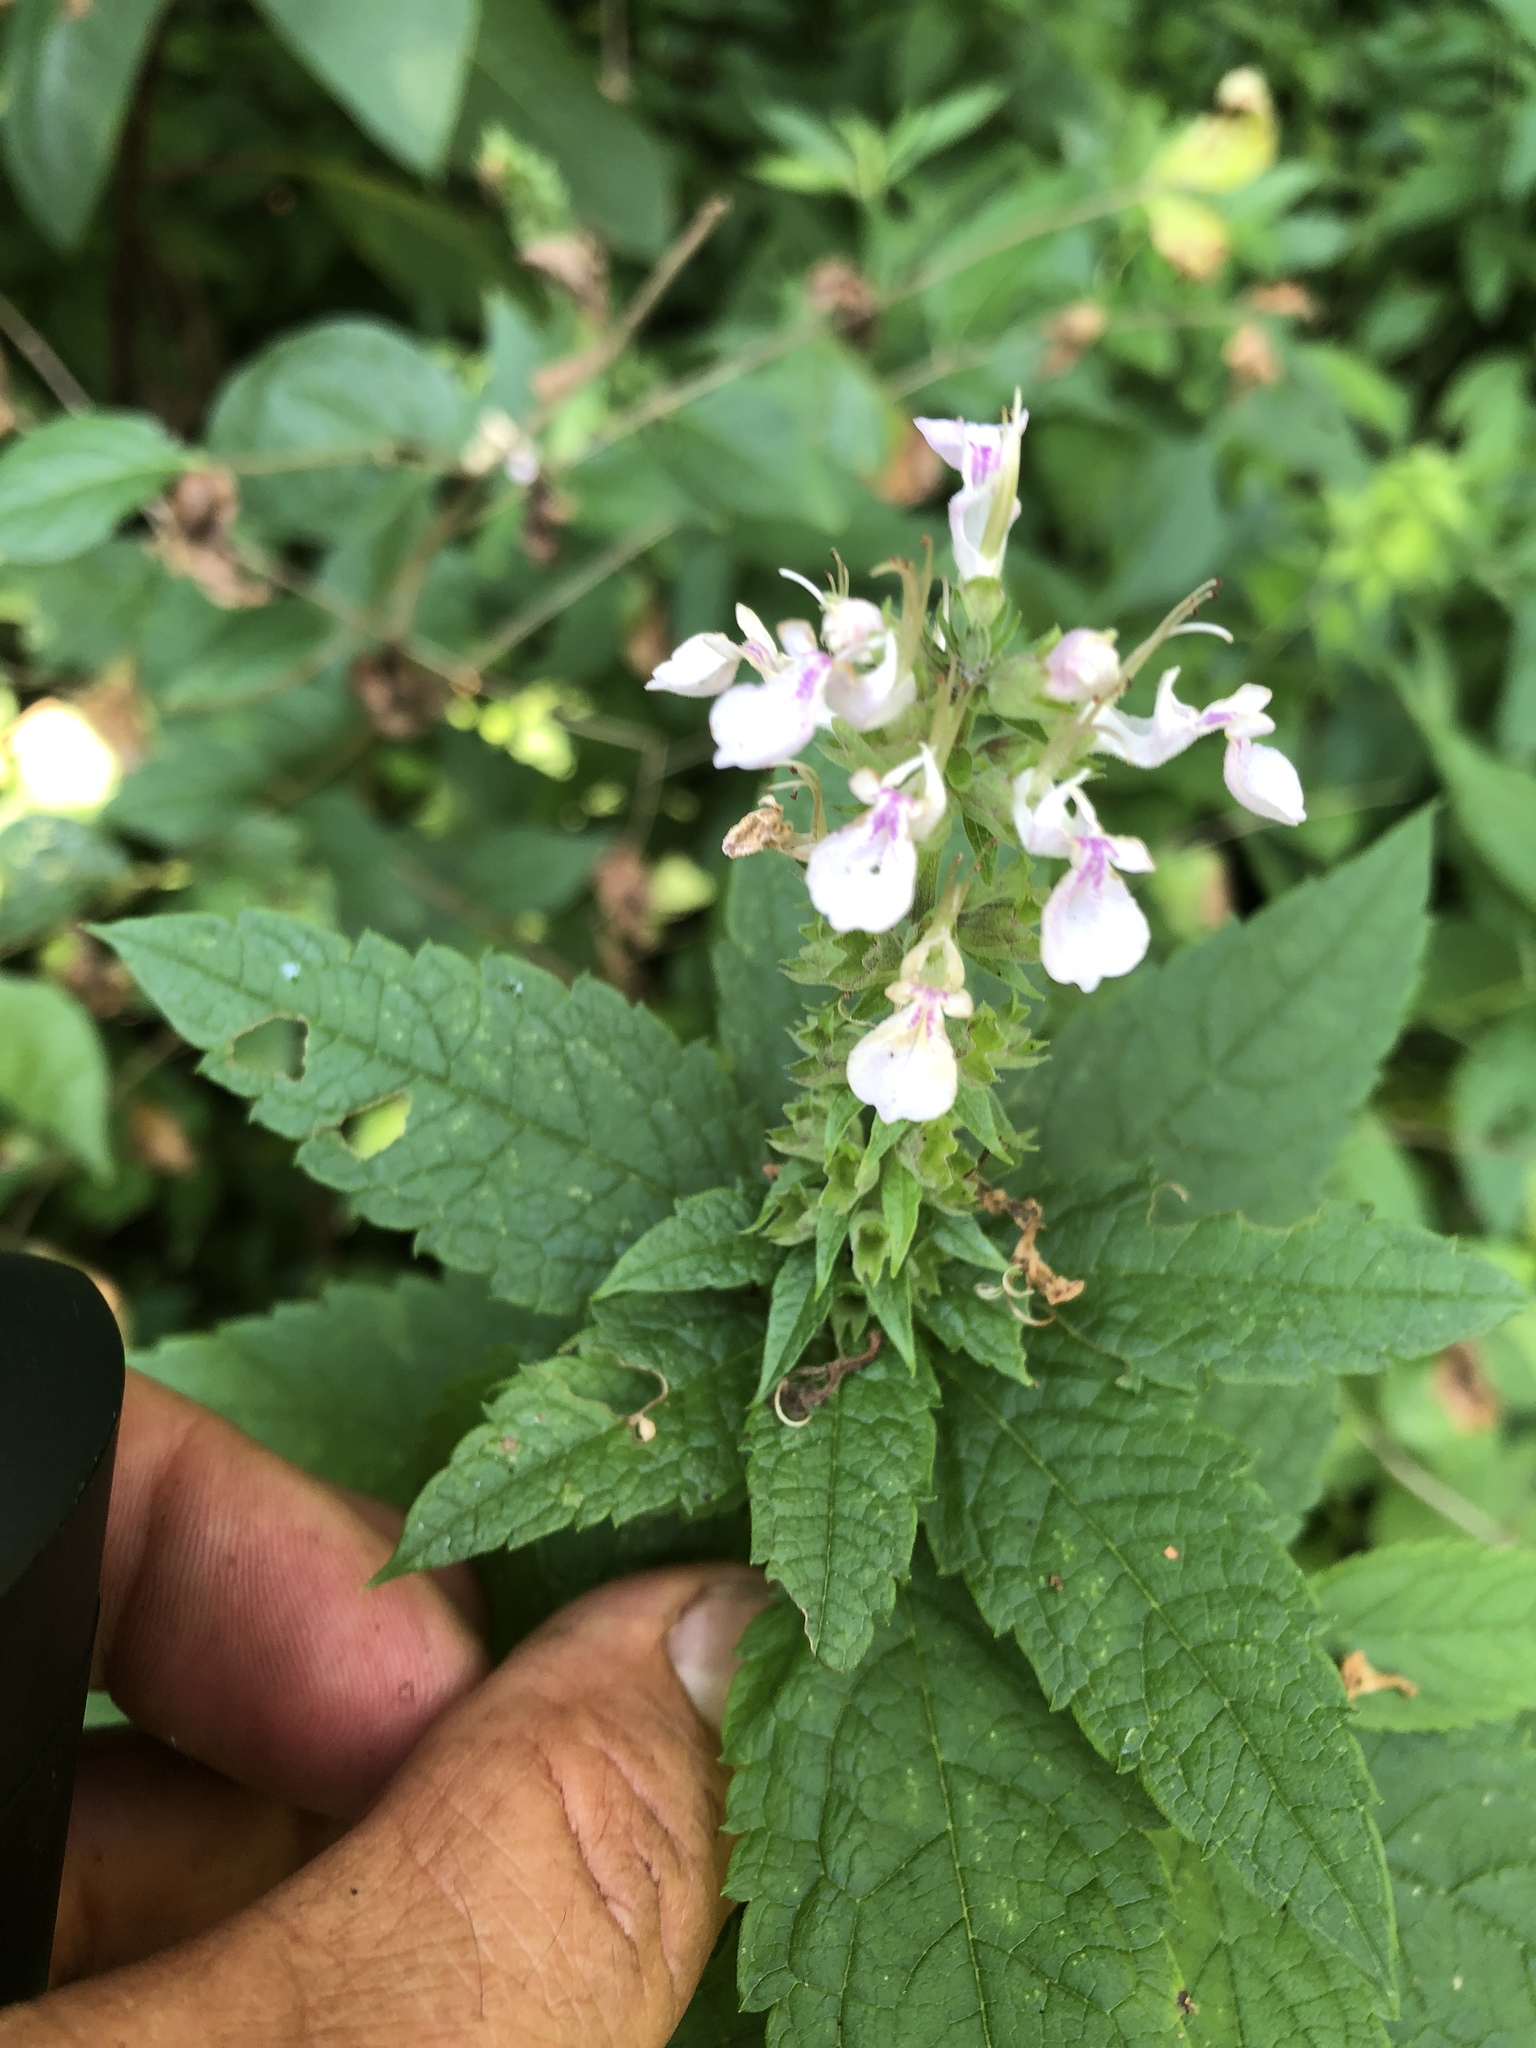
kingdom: Plantae
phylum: Tracheophyta
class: Magnoliopsida
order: Lamiales
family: Lamiaceae
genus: Teucrium
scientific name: Teucrium canadense
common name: American germander
